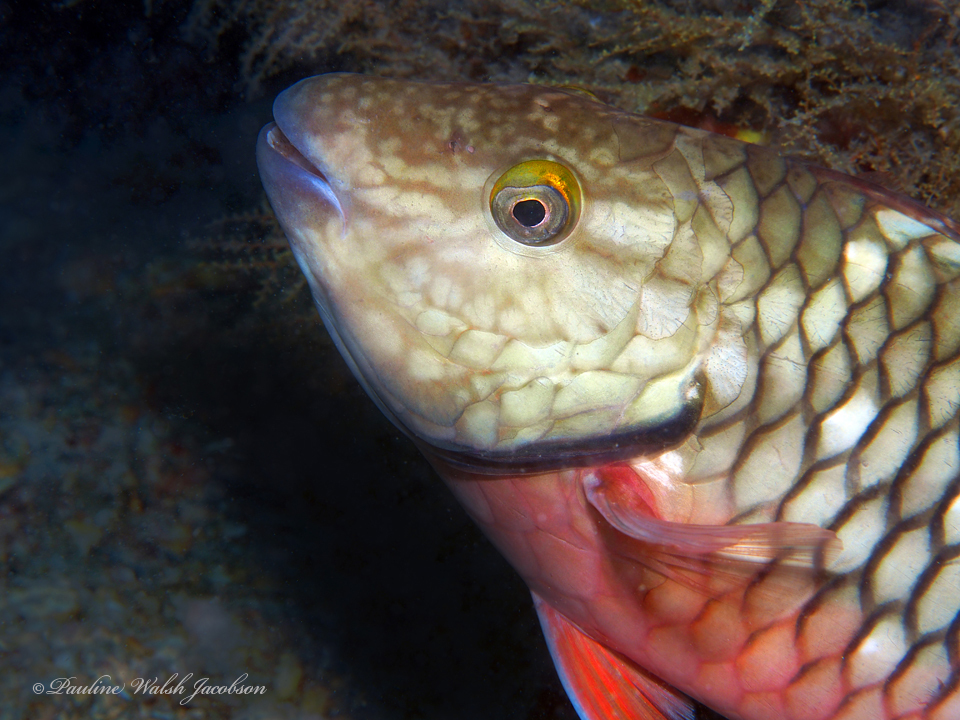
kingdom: Animalia
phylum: Chordata
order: Perciformes
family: Scaridae
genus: Sparisoma
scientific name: Sparisoma viride
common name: Stoplight parrotfish
